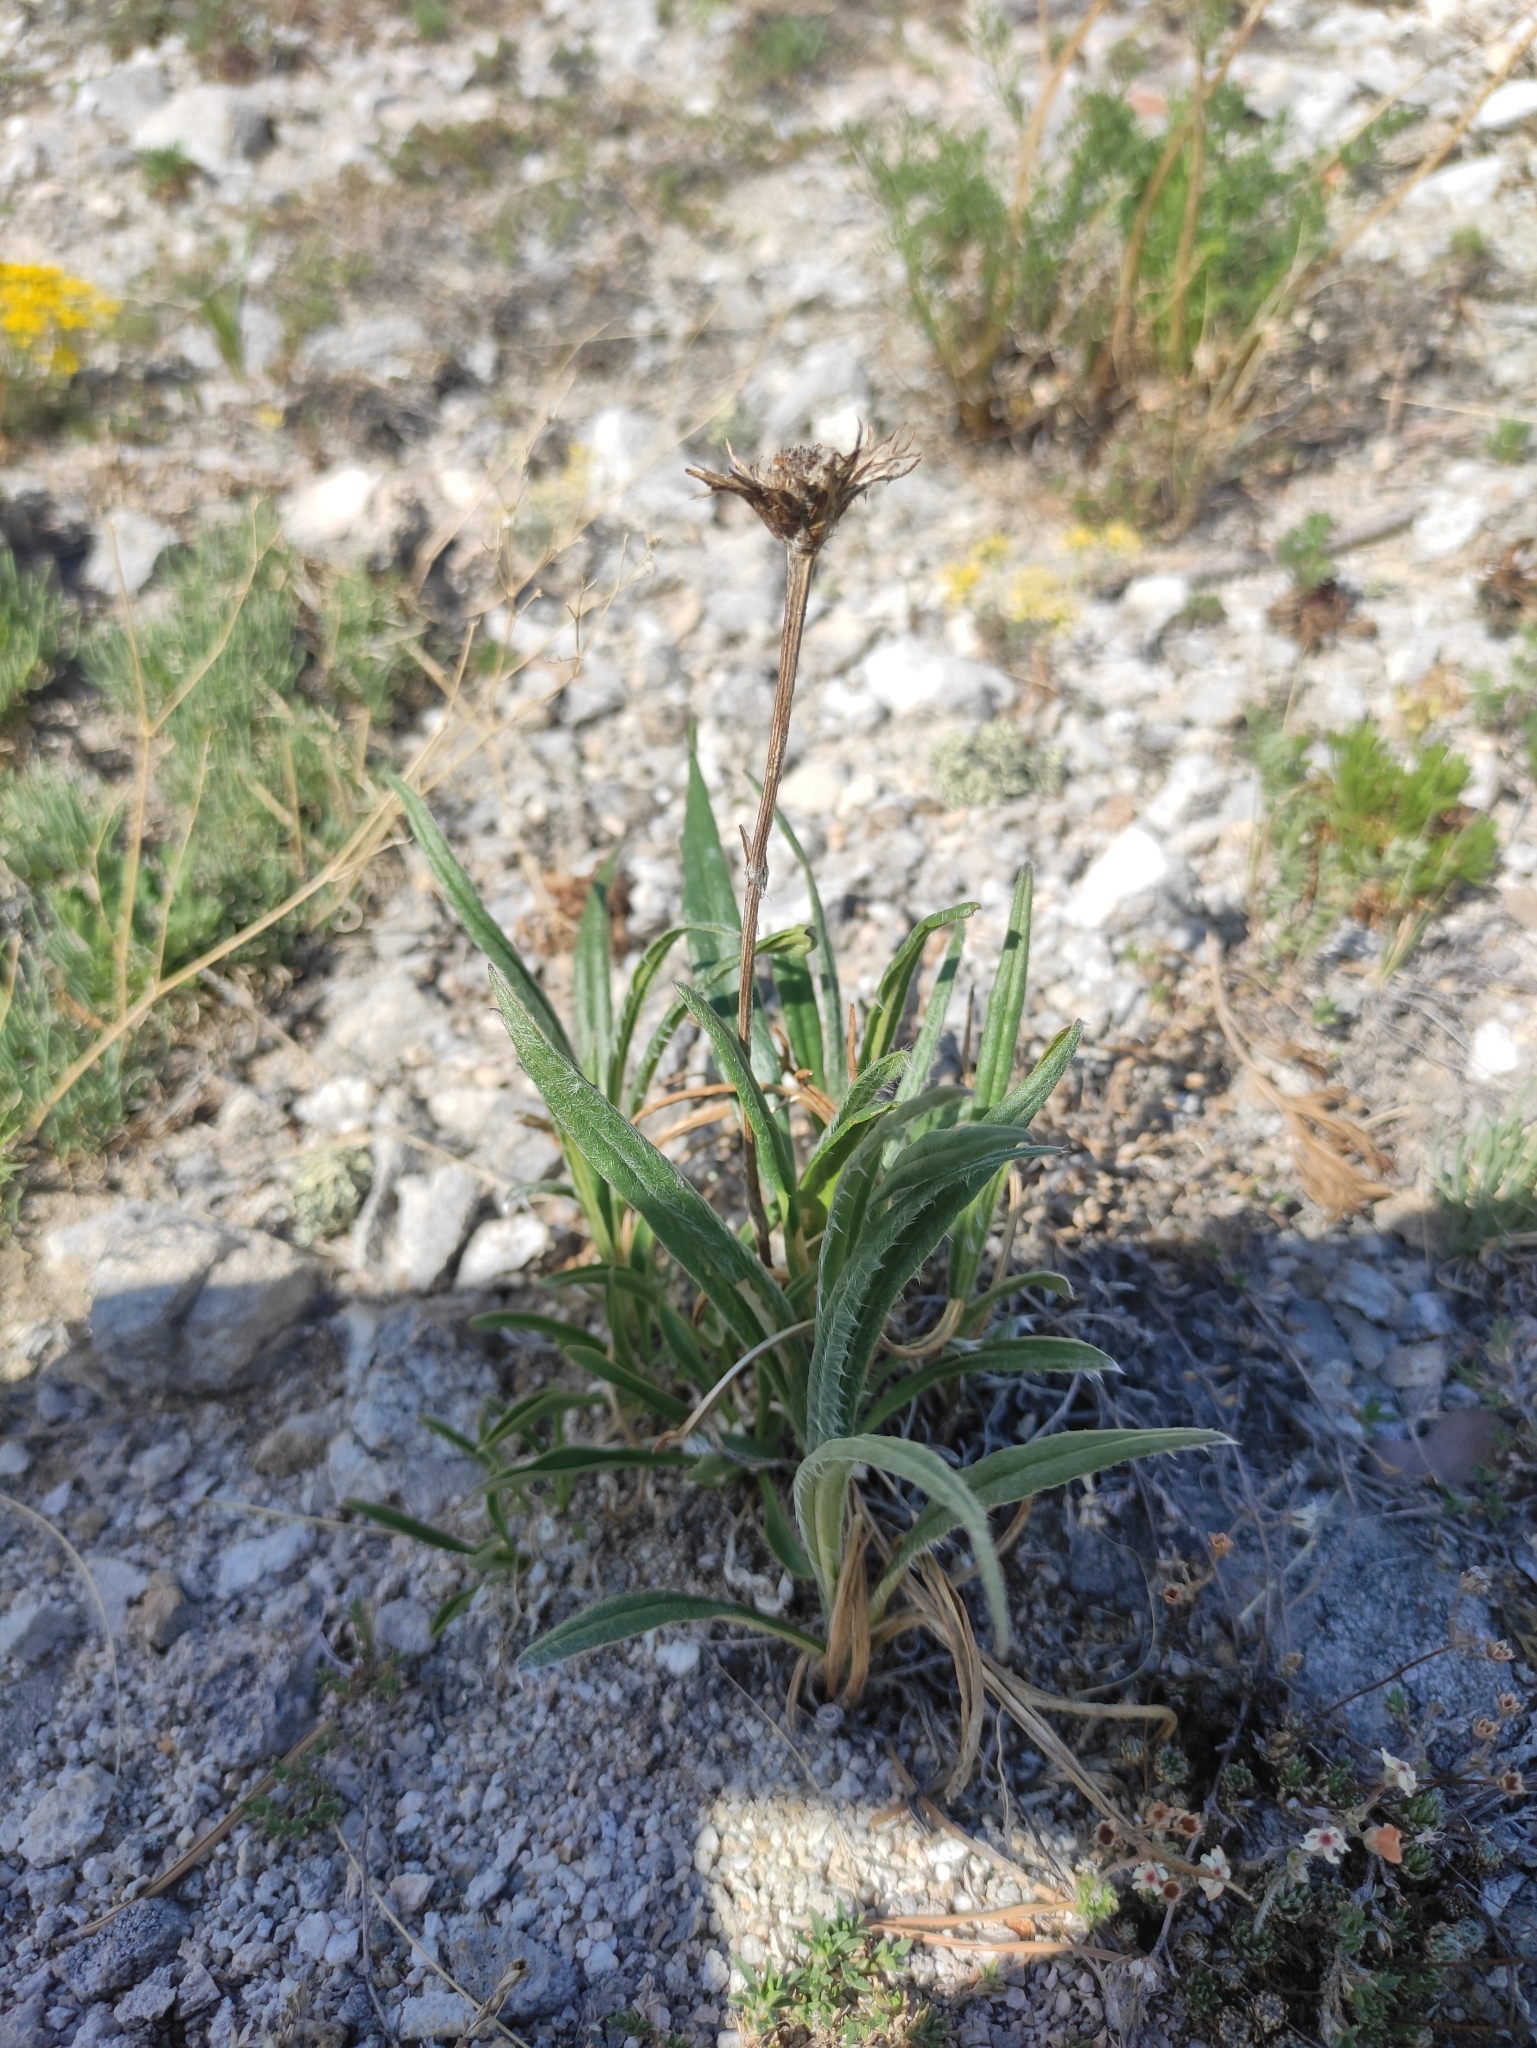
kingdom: Plantae
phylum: Tracheophyta
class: Magnoliopsida
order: Asterales
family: Asteraceae
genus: Saussurea
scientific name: Saussurea schanginiana
